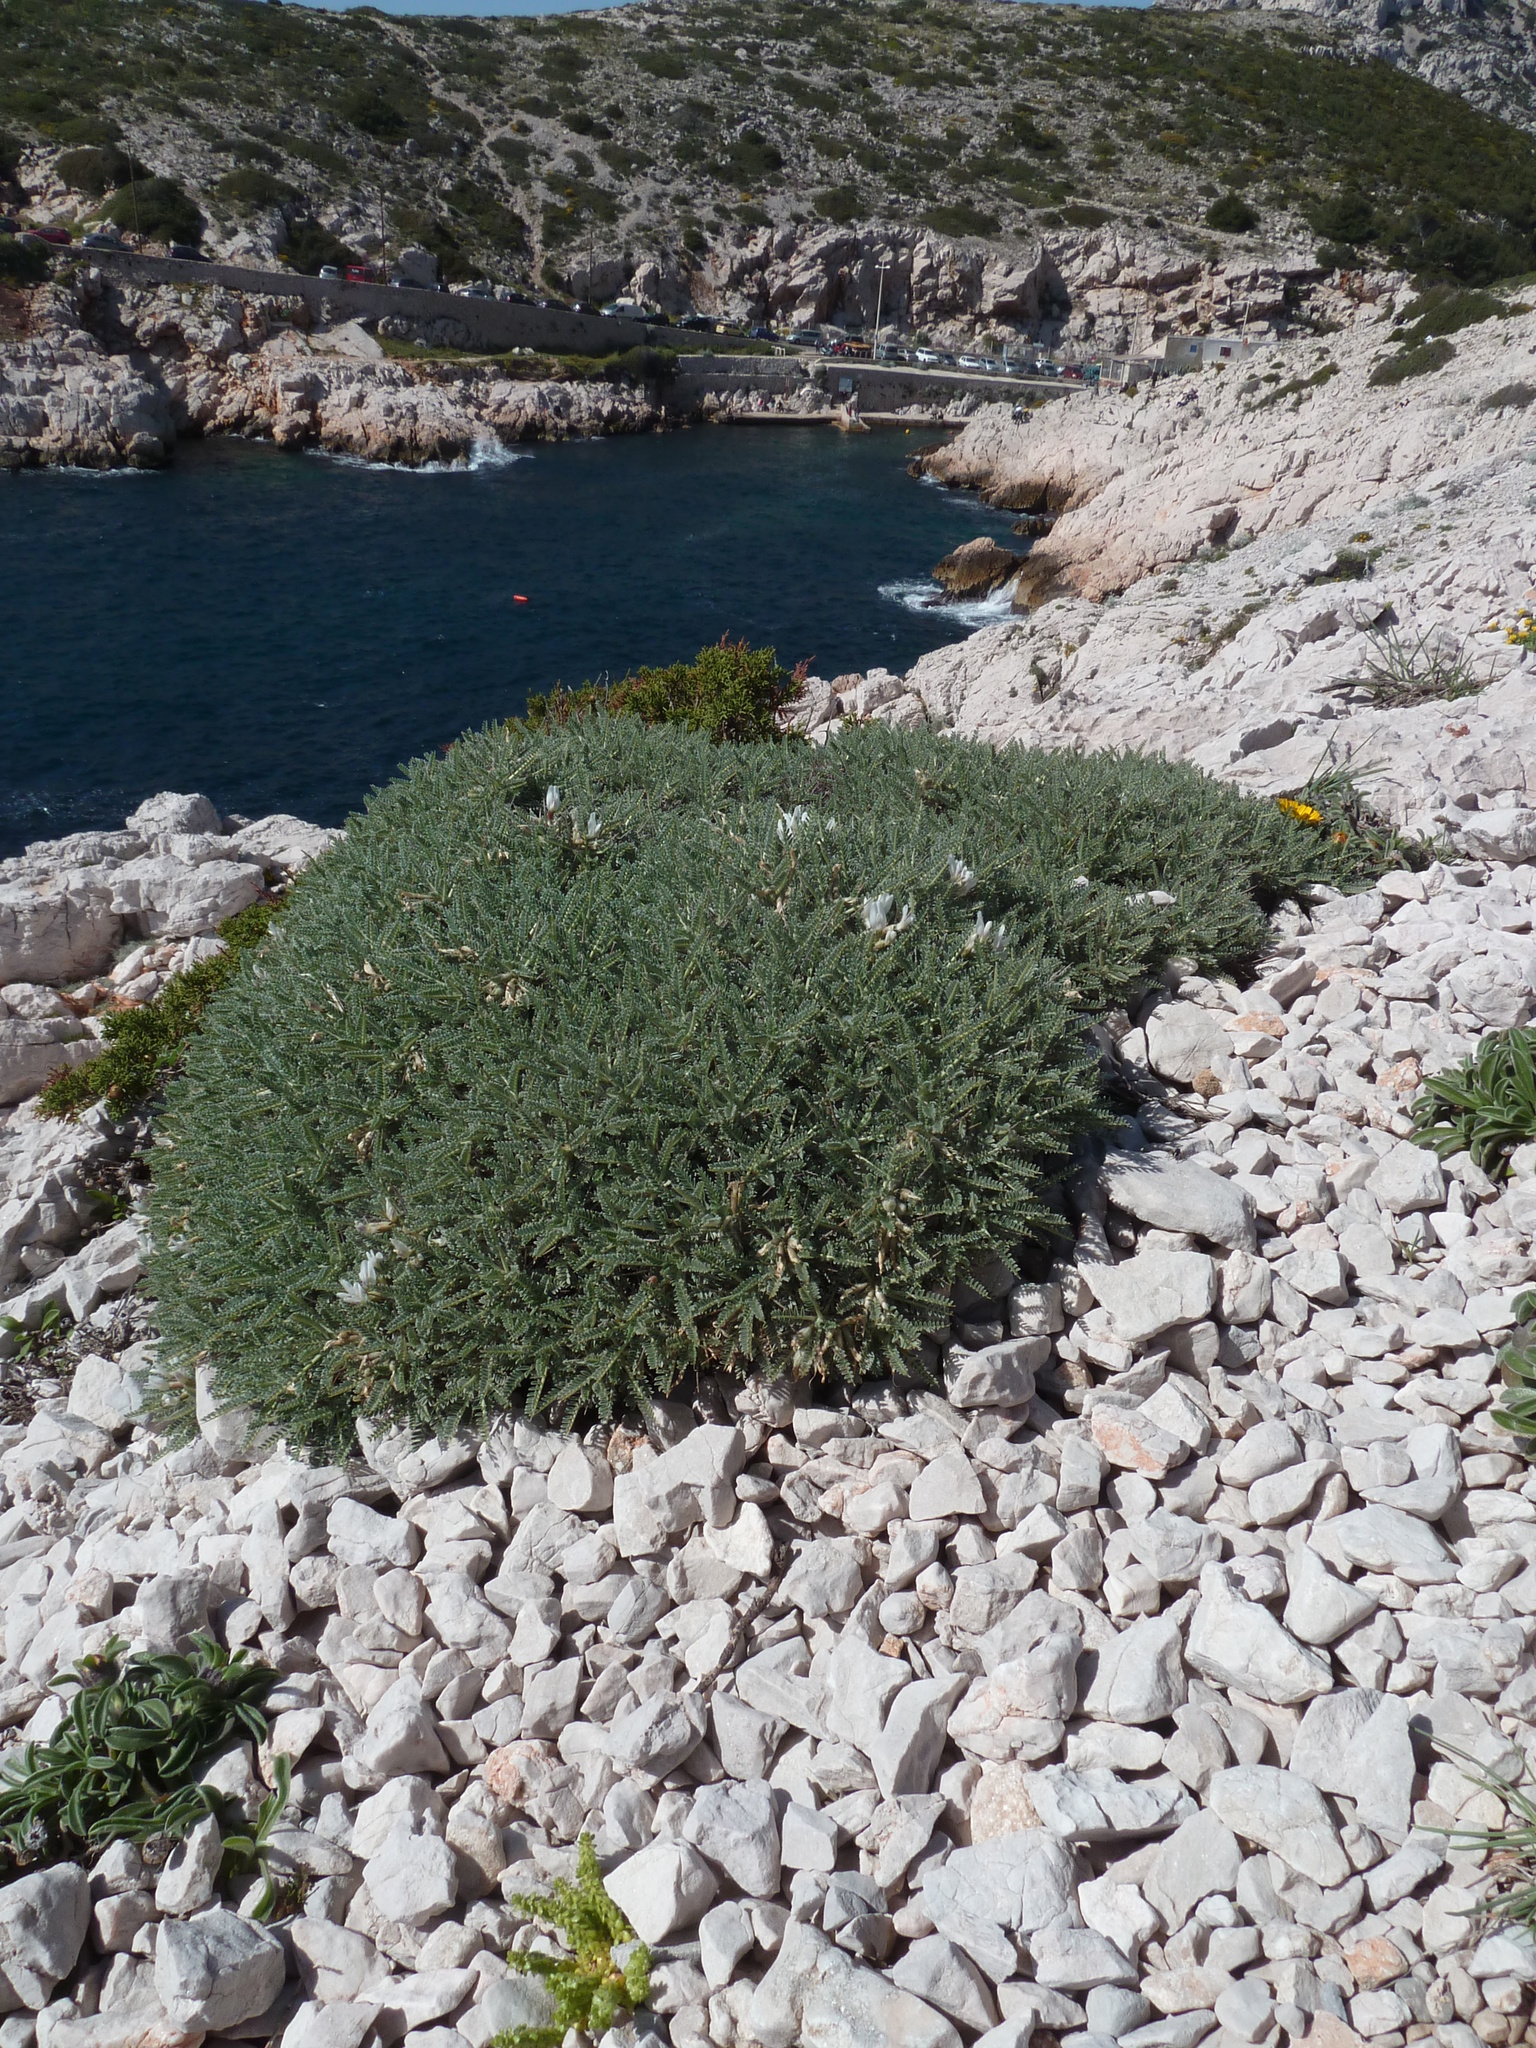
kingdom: Plantae
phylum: Tracheophyta
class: Magnoliopsida
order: Fabales
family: Fabaceae
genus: Astragalus
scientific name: Astragalus tragacantha
